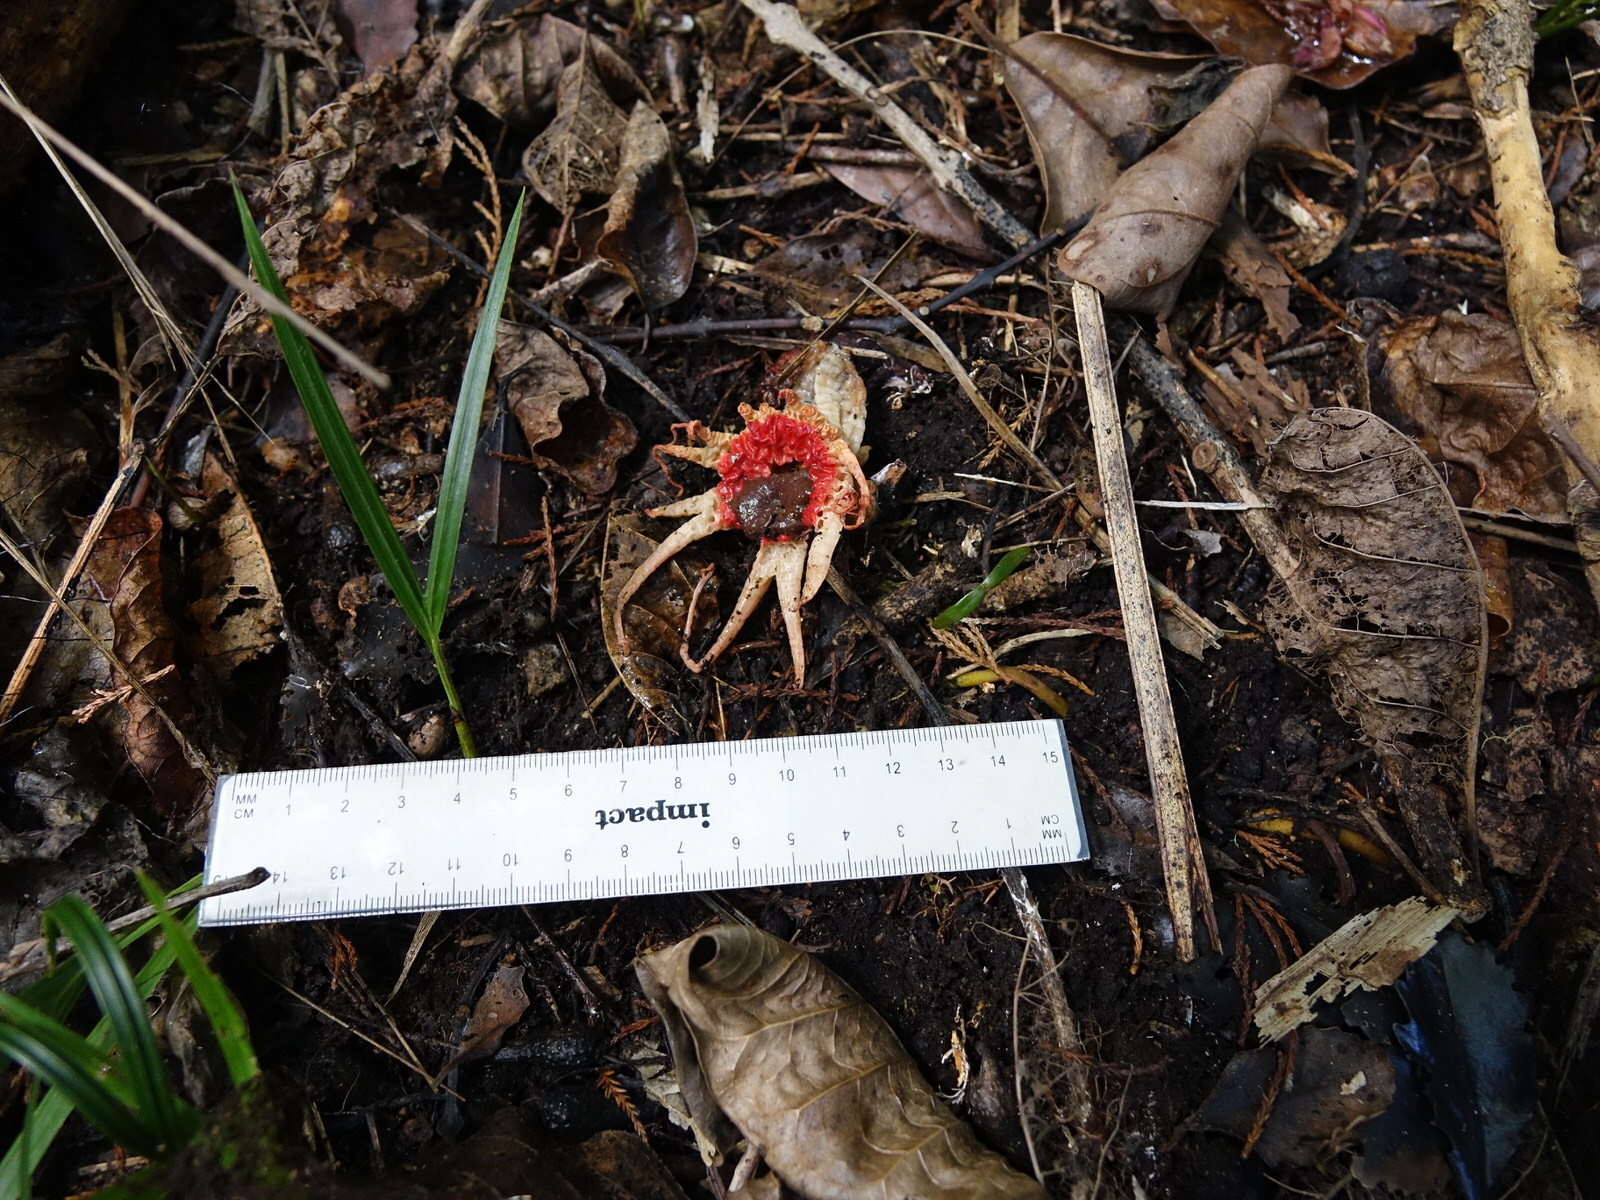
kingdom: Fungi
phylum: Basidiomycota
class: Agaricomycetes
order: Phallales
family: Phallaceae
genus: Aseroe
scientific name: Aseroe rubra
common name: Starfish fungus
